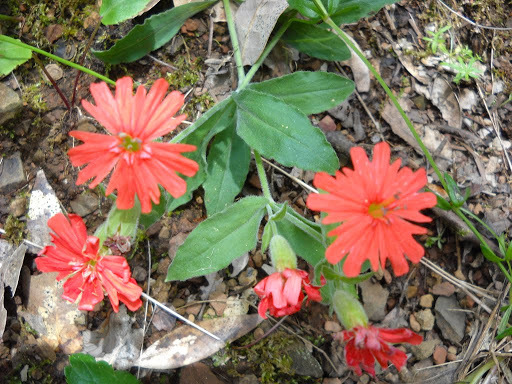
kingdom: Plantae
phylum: Tracheophyta
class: Magnoliopsida
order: Caryophyllales
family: Caryophyllaceae
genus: Silene
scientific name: Silene laciniata
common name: Indian-pink
